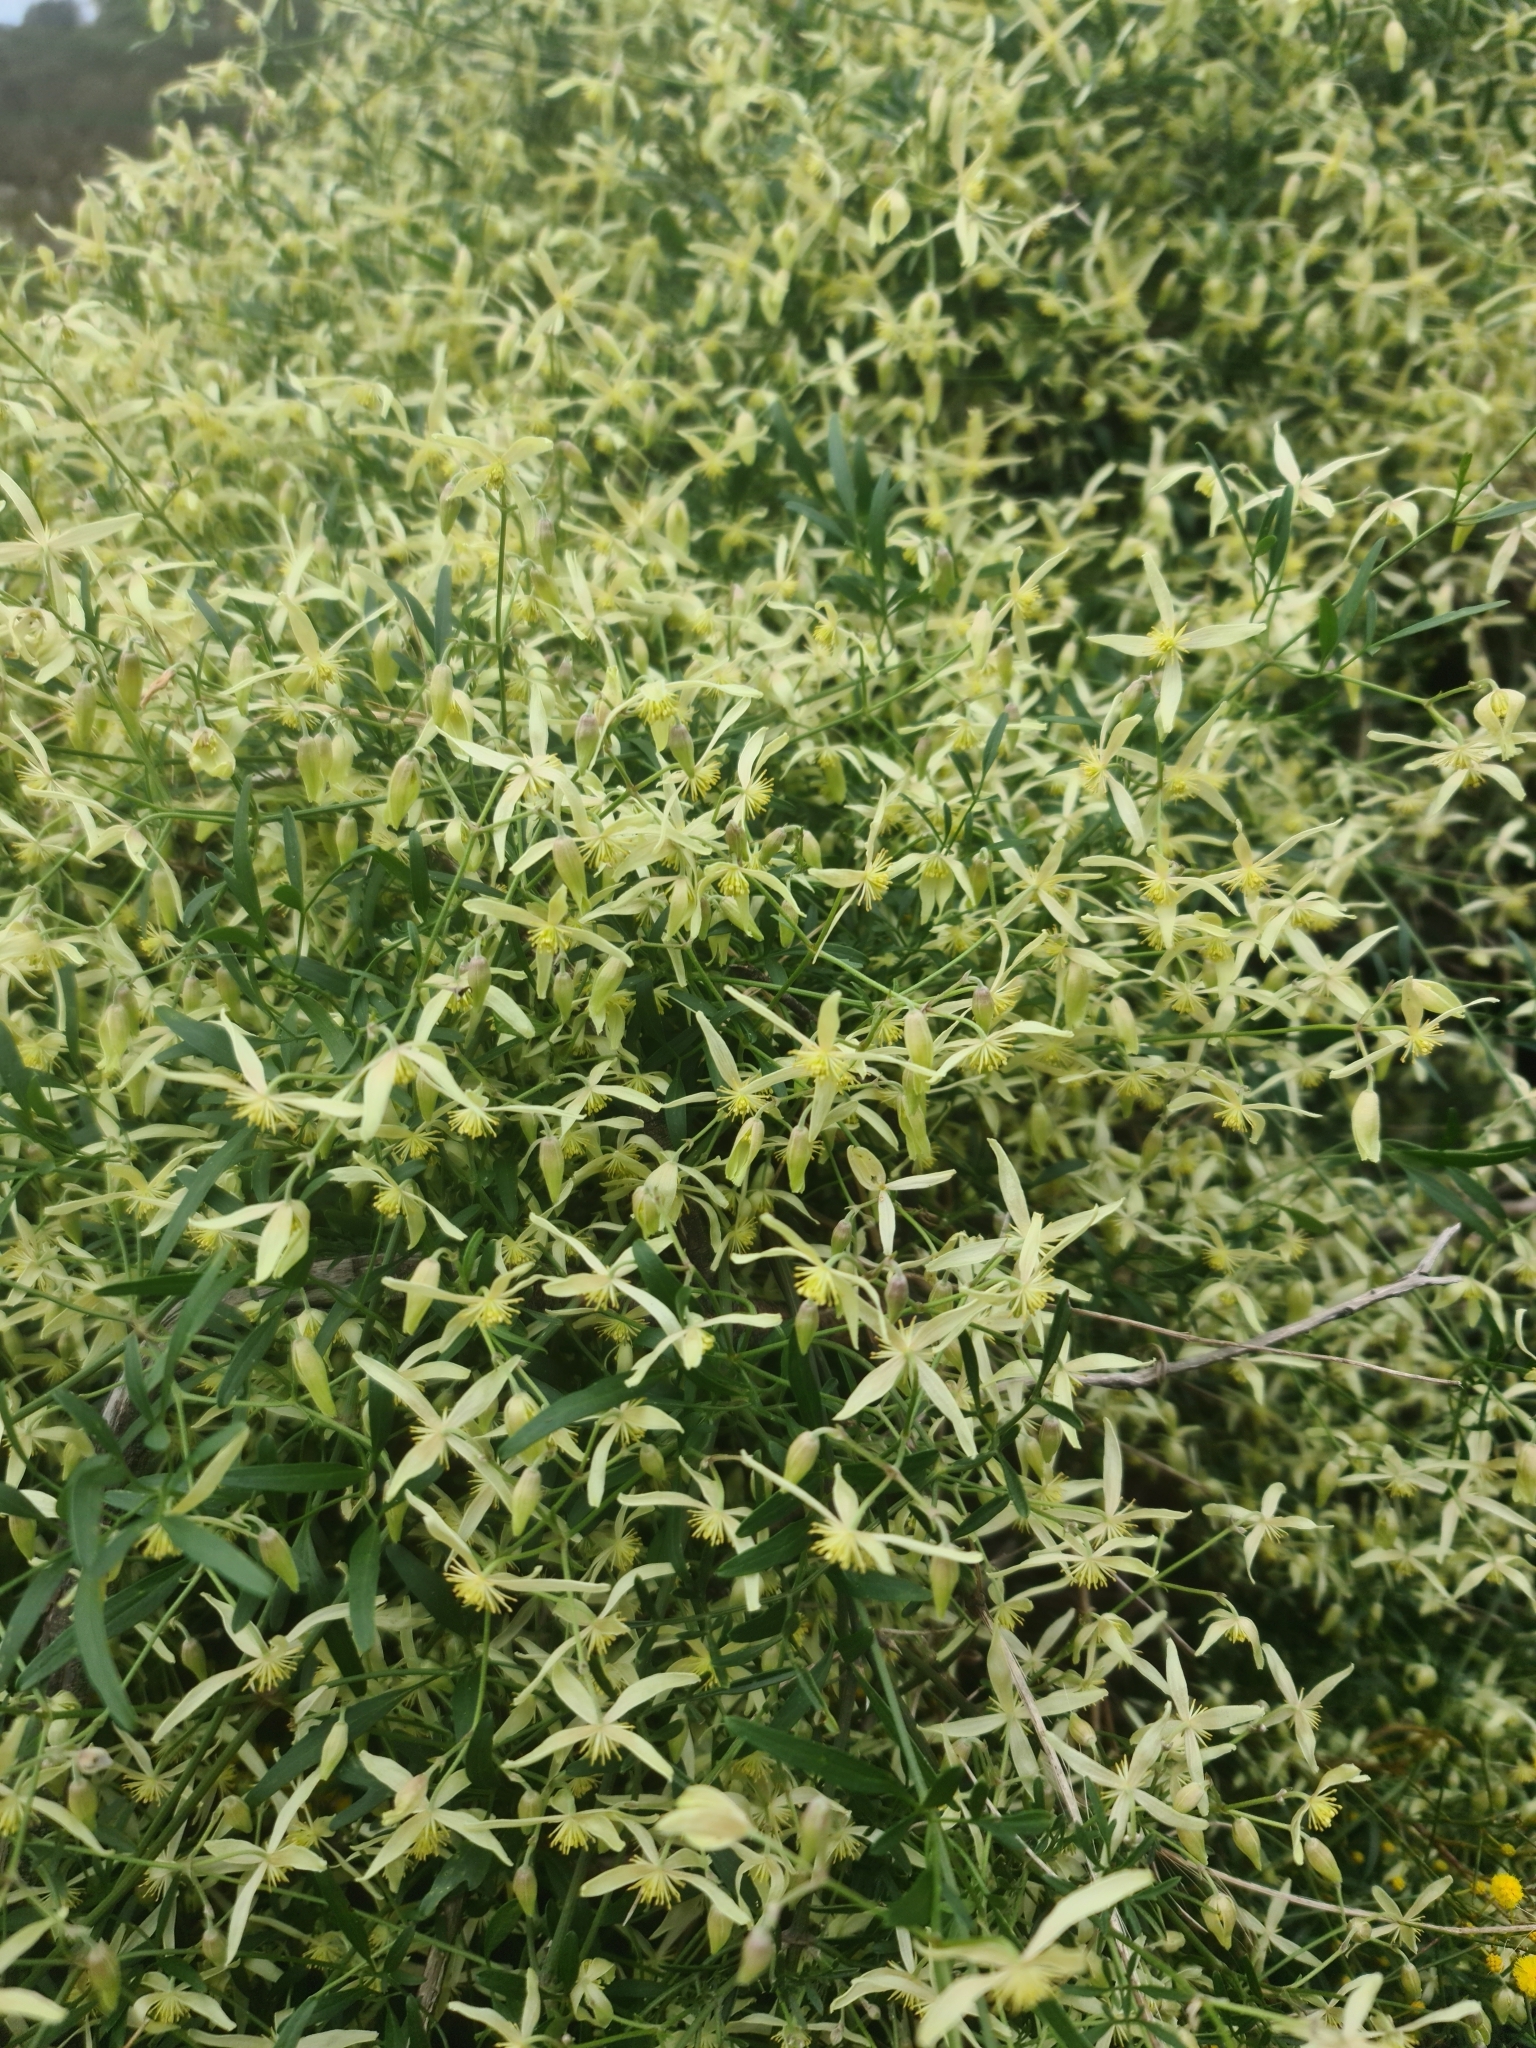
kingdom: Plantae
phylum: Tracheophyta
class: Magnoliopsida
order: Ranunculales
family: Ranunculaceae
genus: Clematis
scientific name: Clematis microphylla
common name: Headachevine
